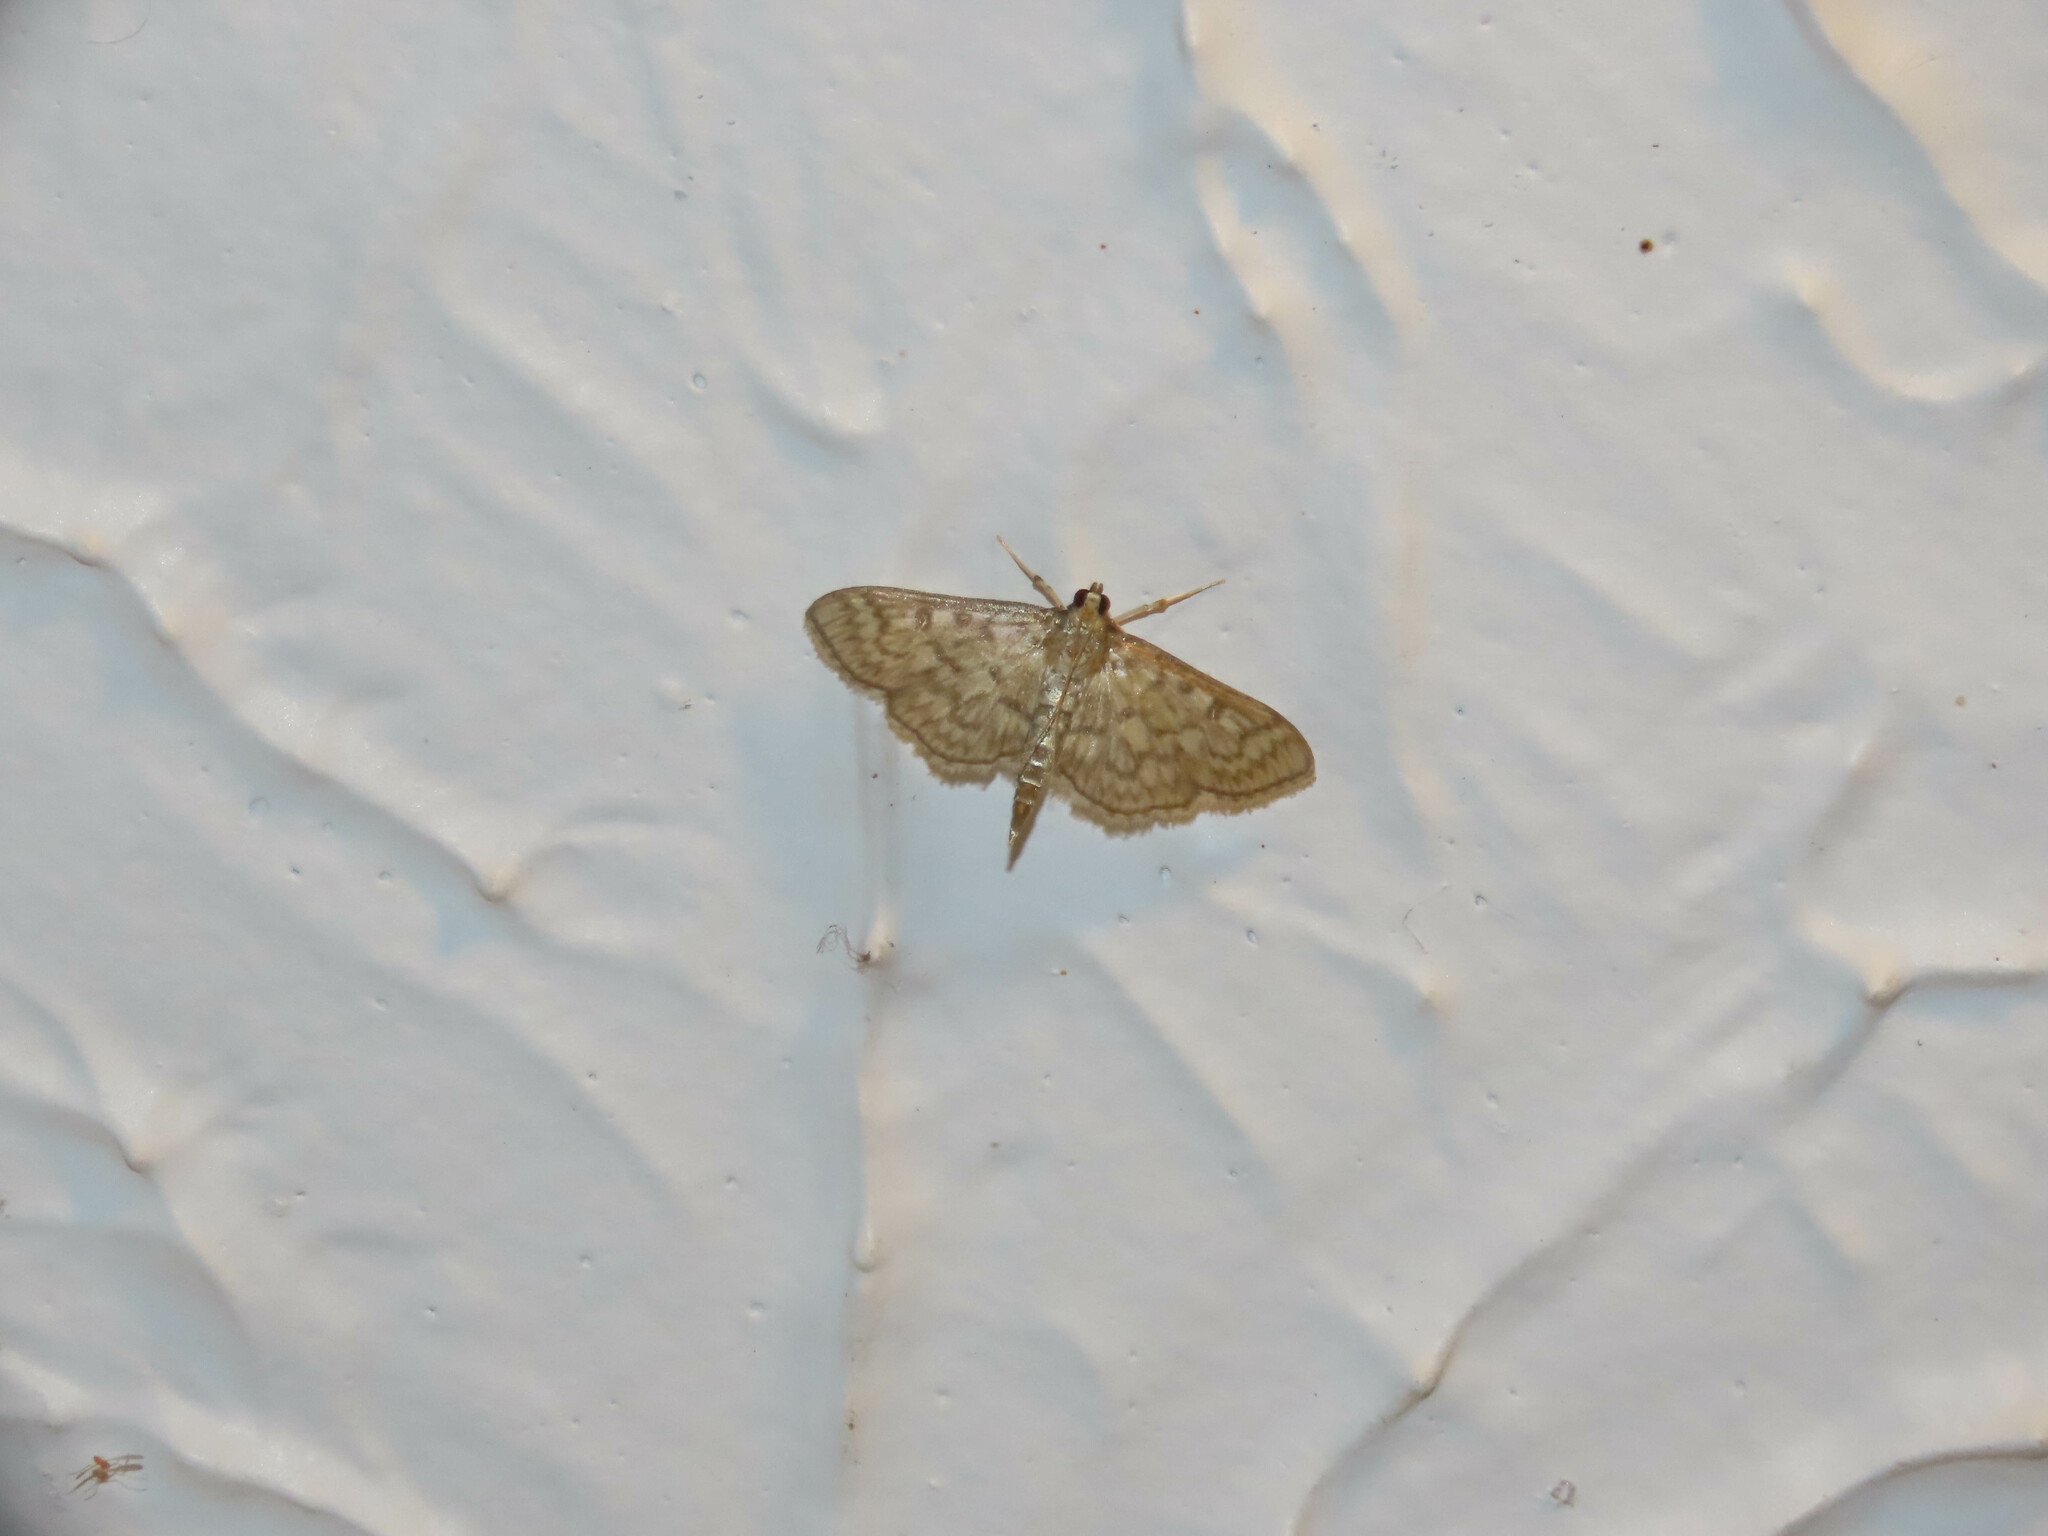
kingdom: Animalia
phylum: Arthropoda
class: Insecta
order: Lepidoptera
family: Crambidae
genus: Herpetogramma
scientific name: Herpetogramma pertextalis
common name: Bold-feathered grass moth
